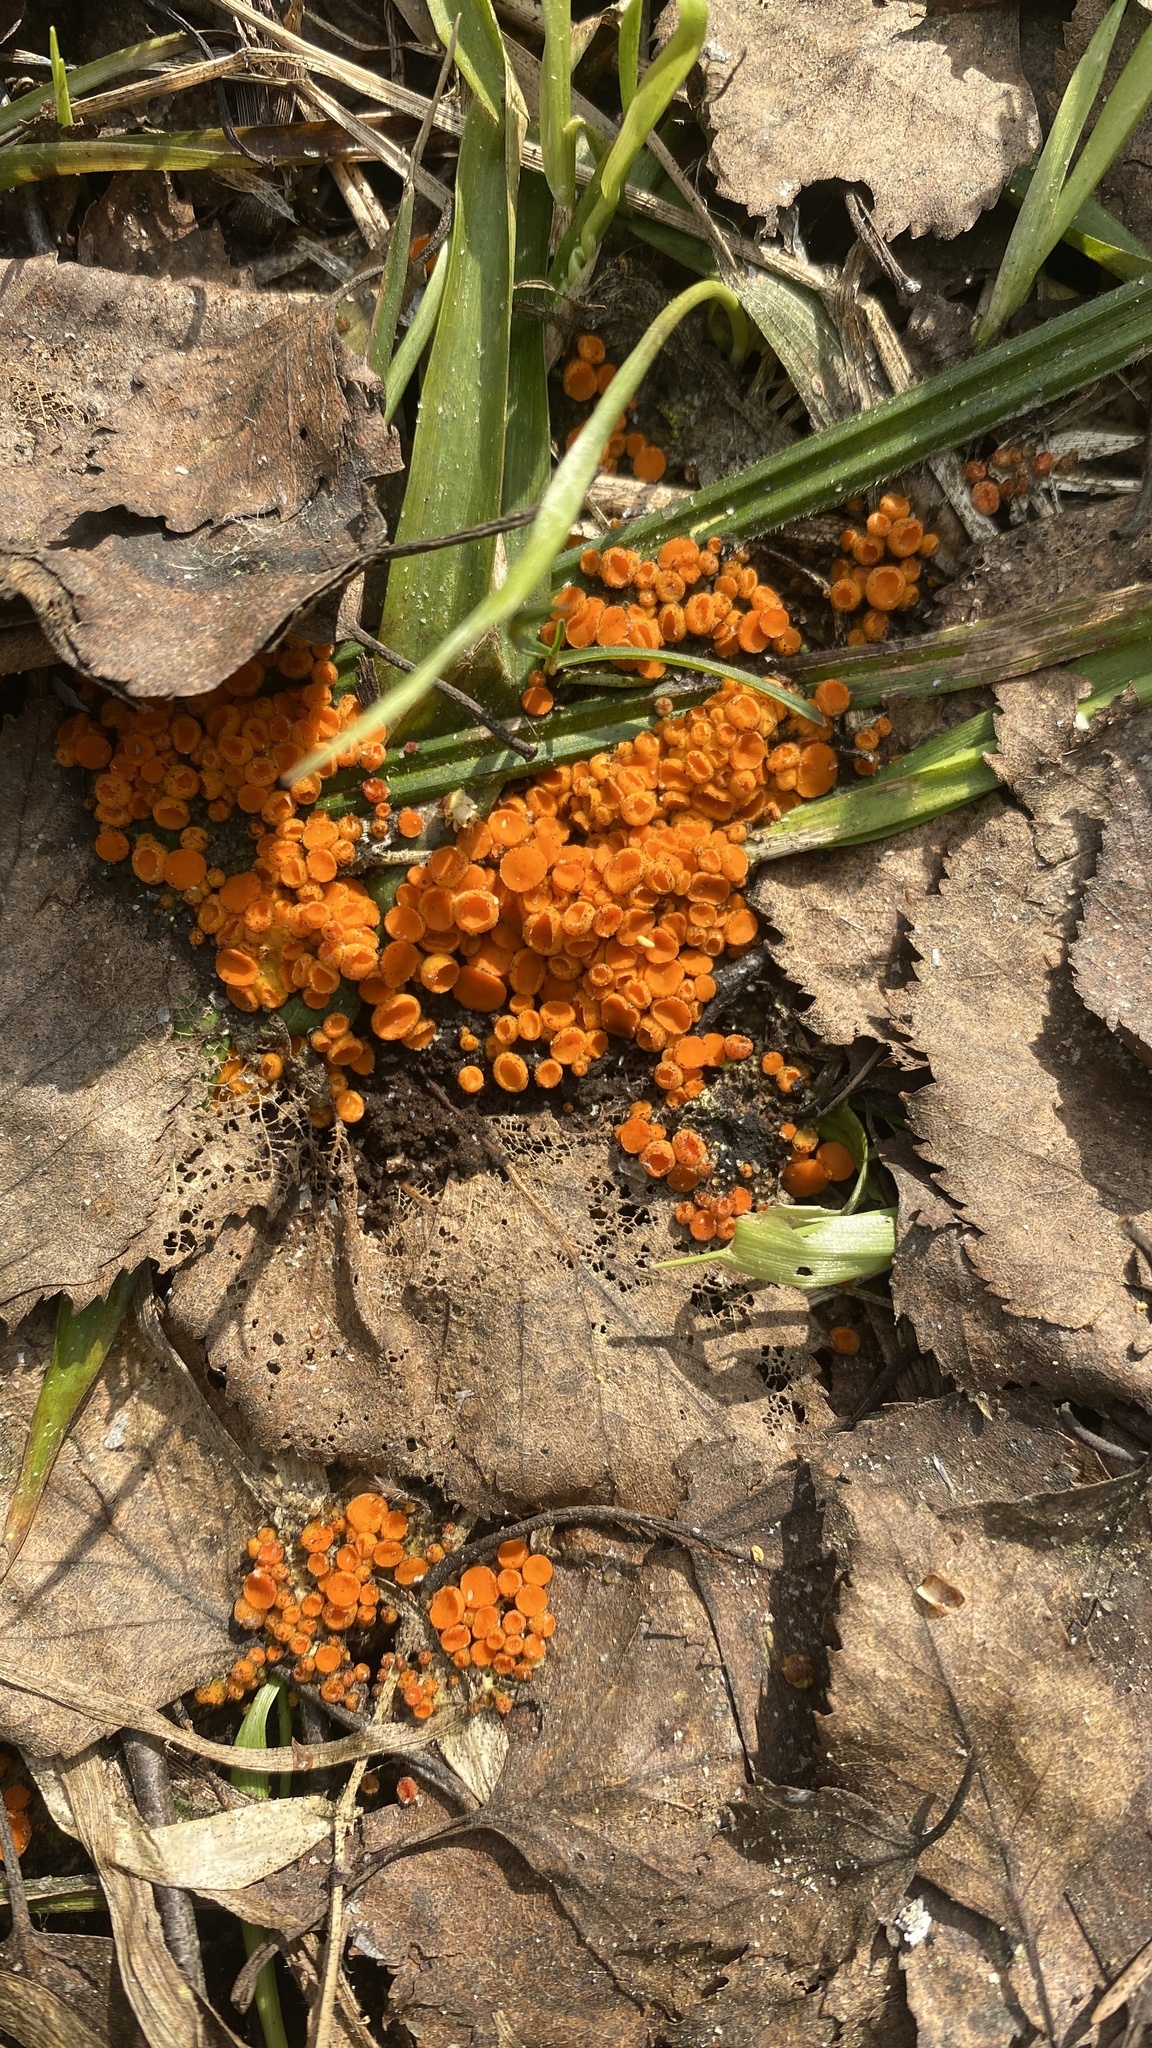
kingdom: Fungi
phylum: Ascomycota
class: Pezizomycetes
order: Pezizales
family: Pyronemataceae
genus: Byssonectria
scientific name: Byssonectria terrestris
